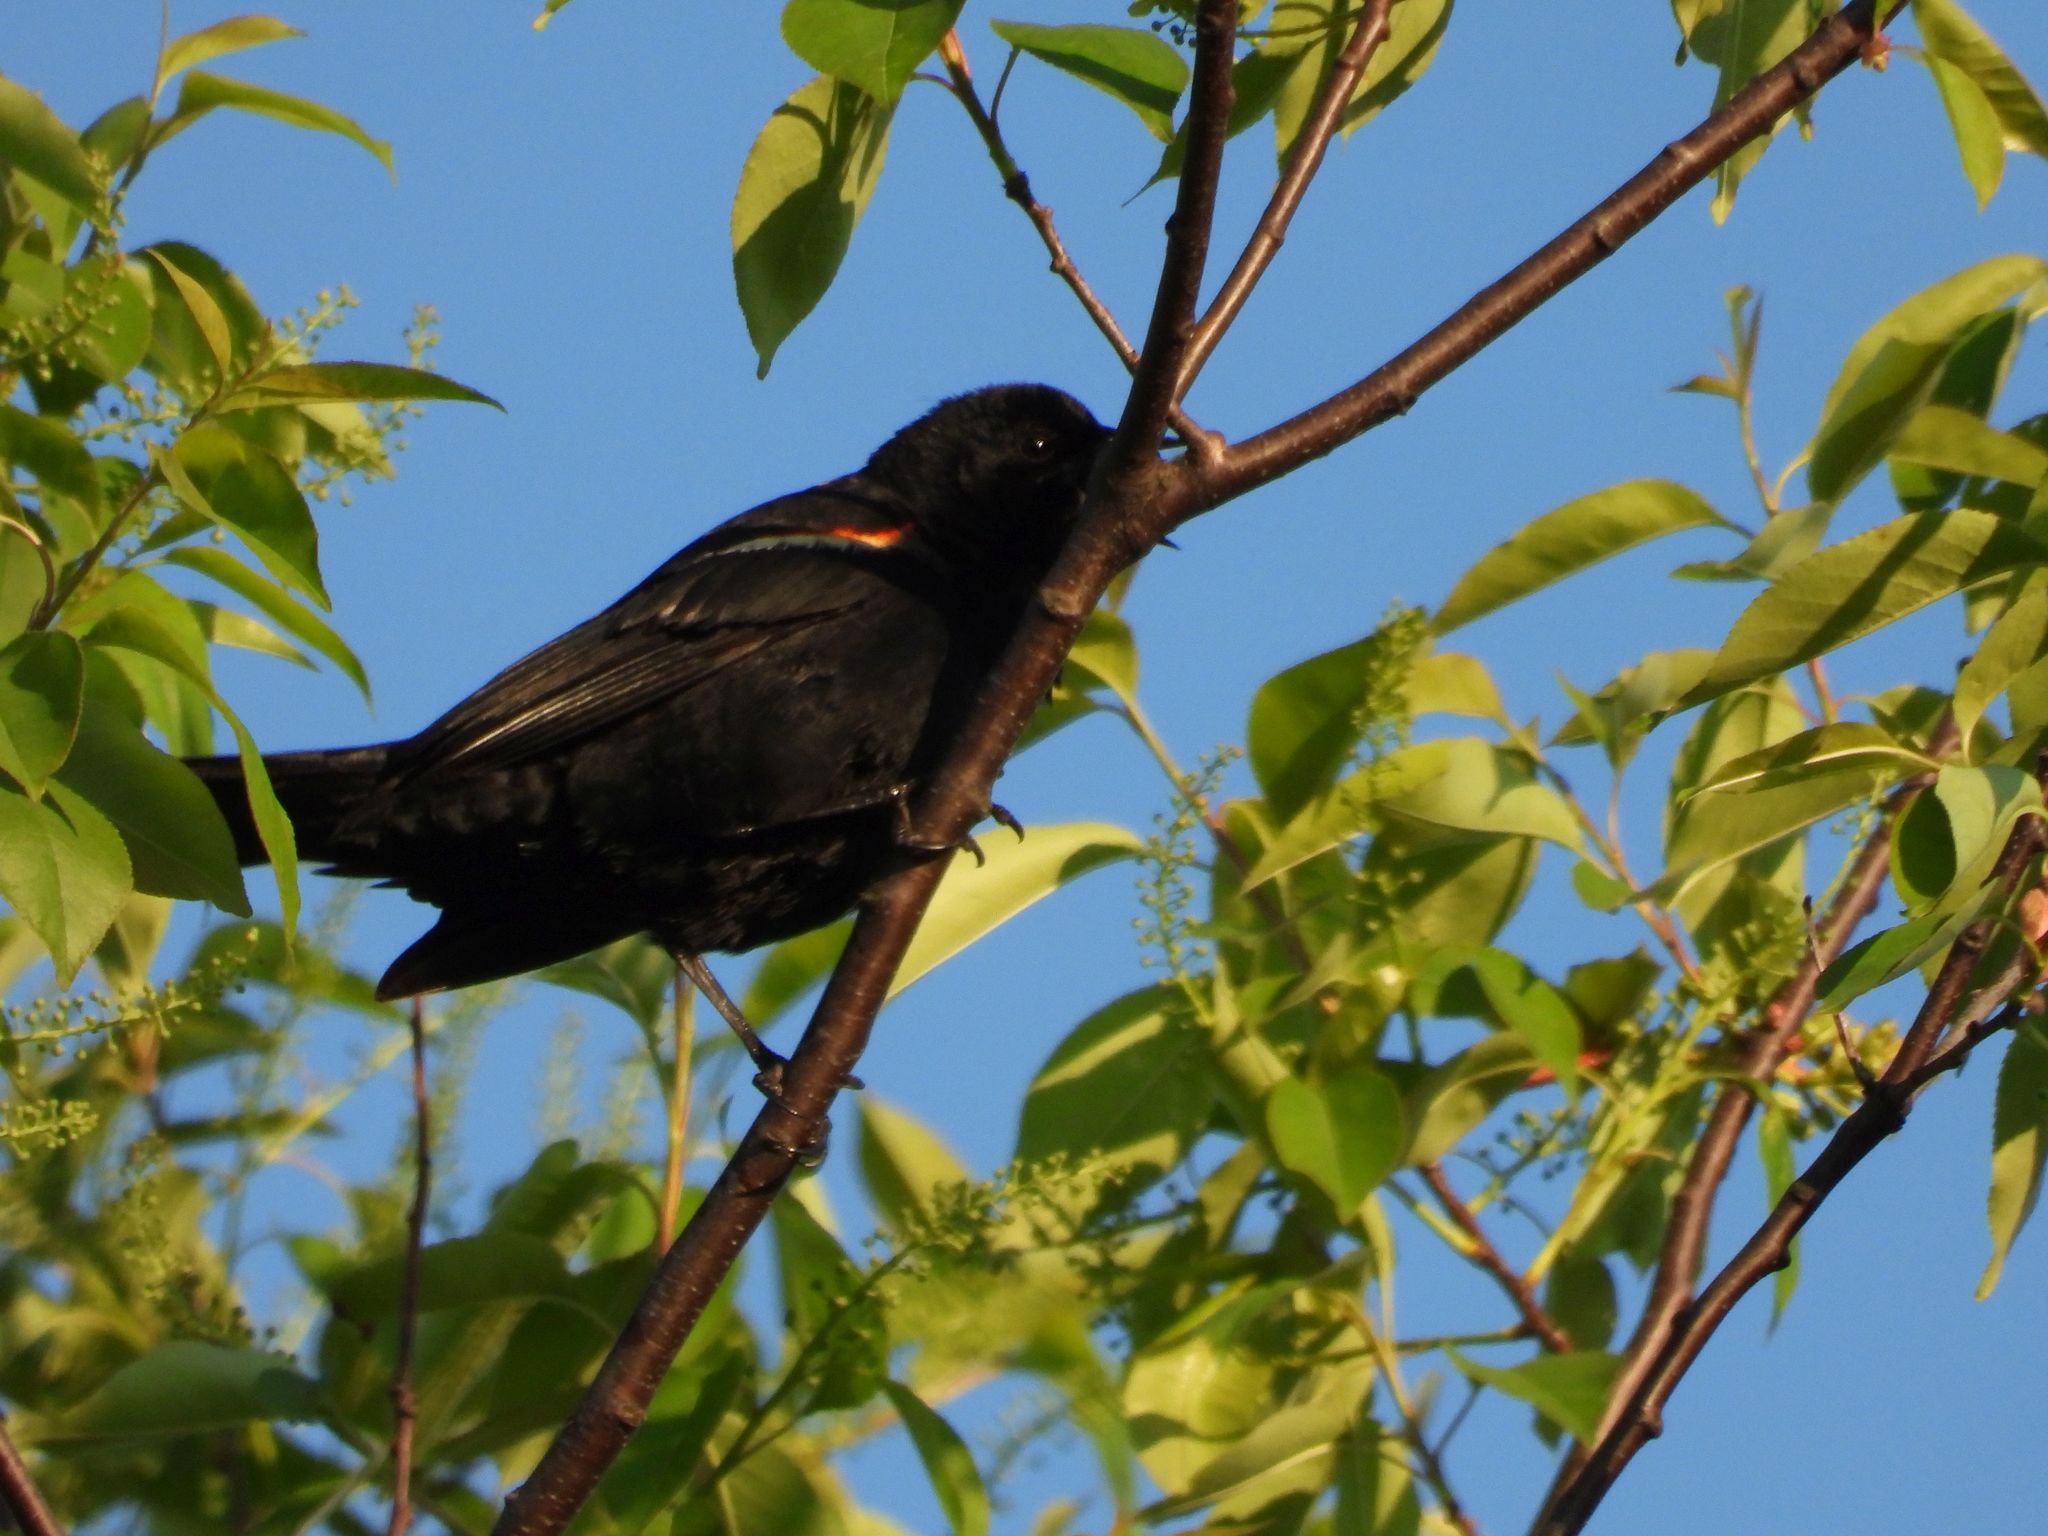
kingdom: Animalia
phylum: Chordata
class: Aves
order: Passeriformes
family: Icteridae
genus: Agelaius
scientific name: Agelaius phoeniceus
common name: Red-winged blackbird
